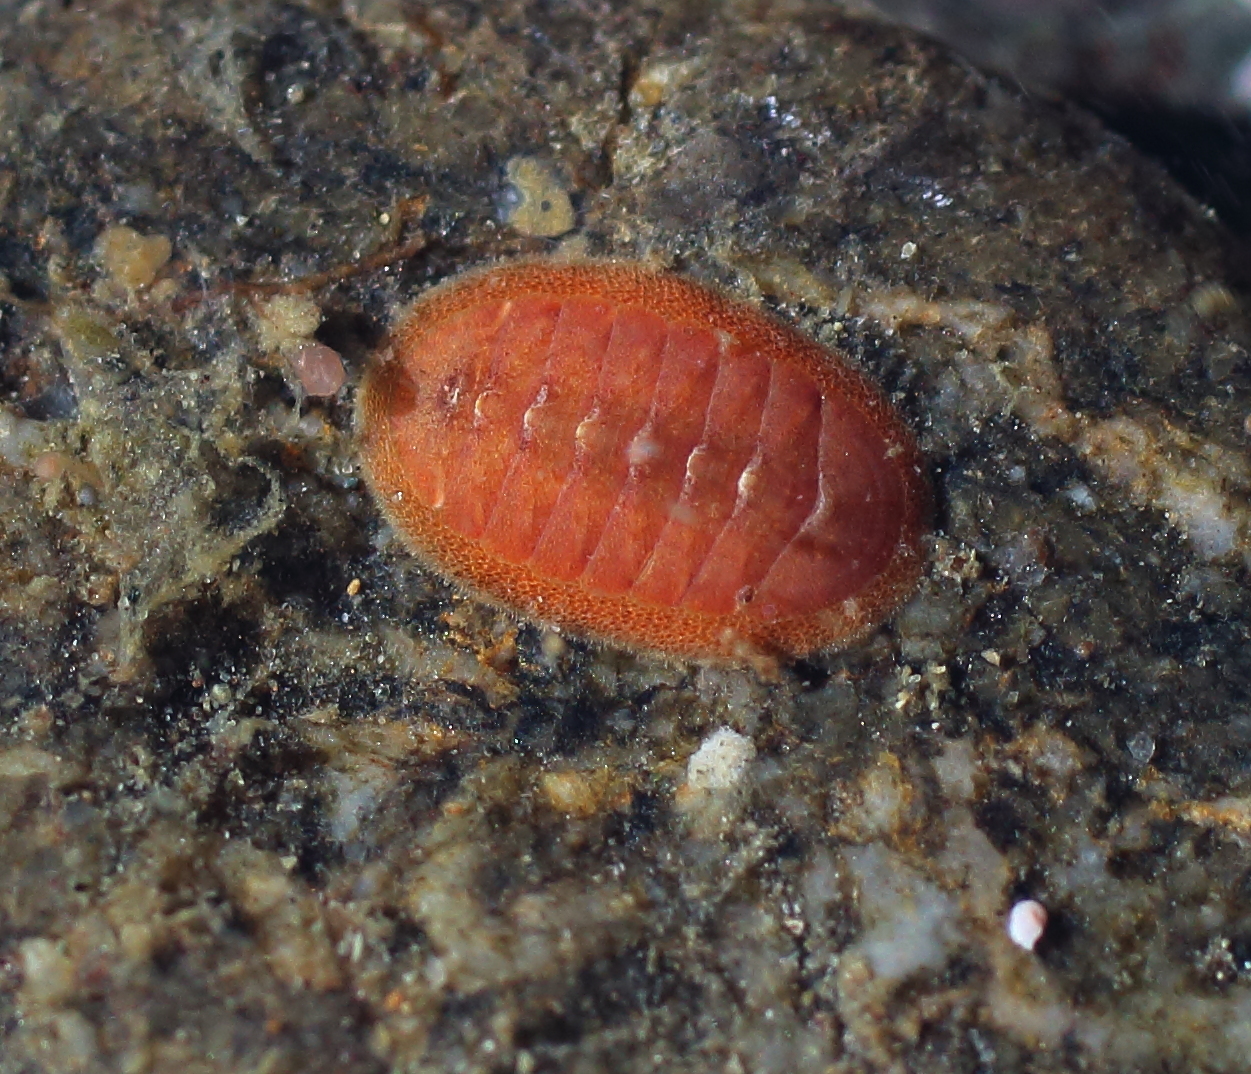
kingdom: Animalia
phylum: Mollusca
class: Polyplacophora
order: Chitonida
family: Ischnochitonidae
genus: Lepidozona
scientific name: Lepidozona interstincta
